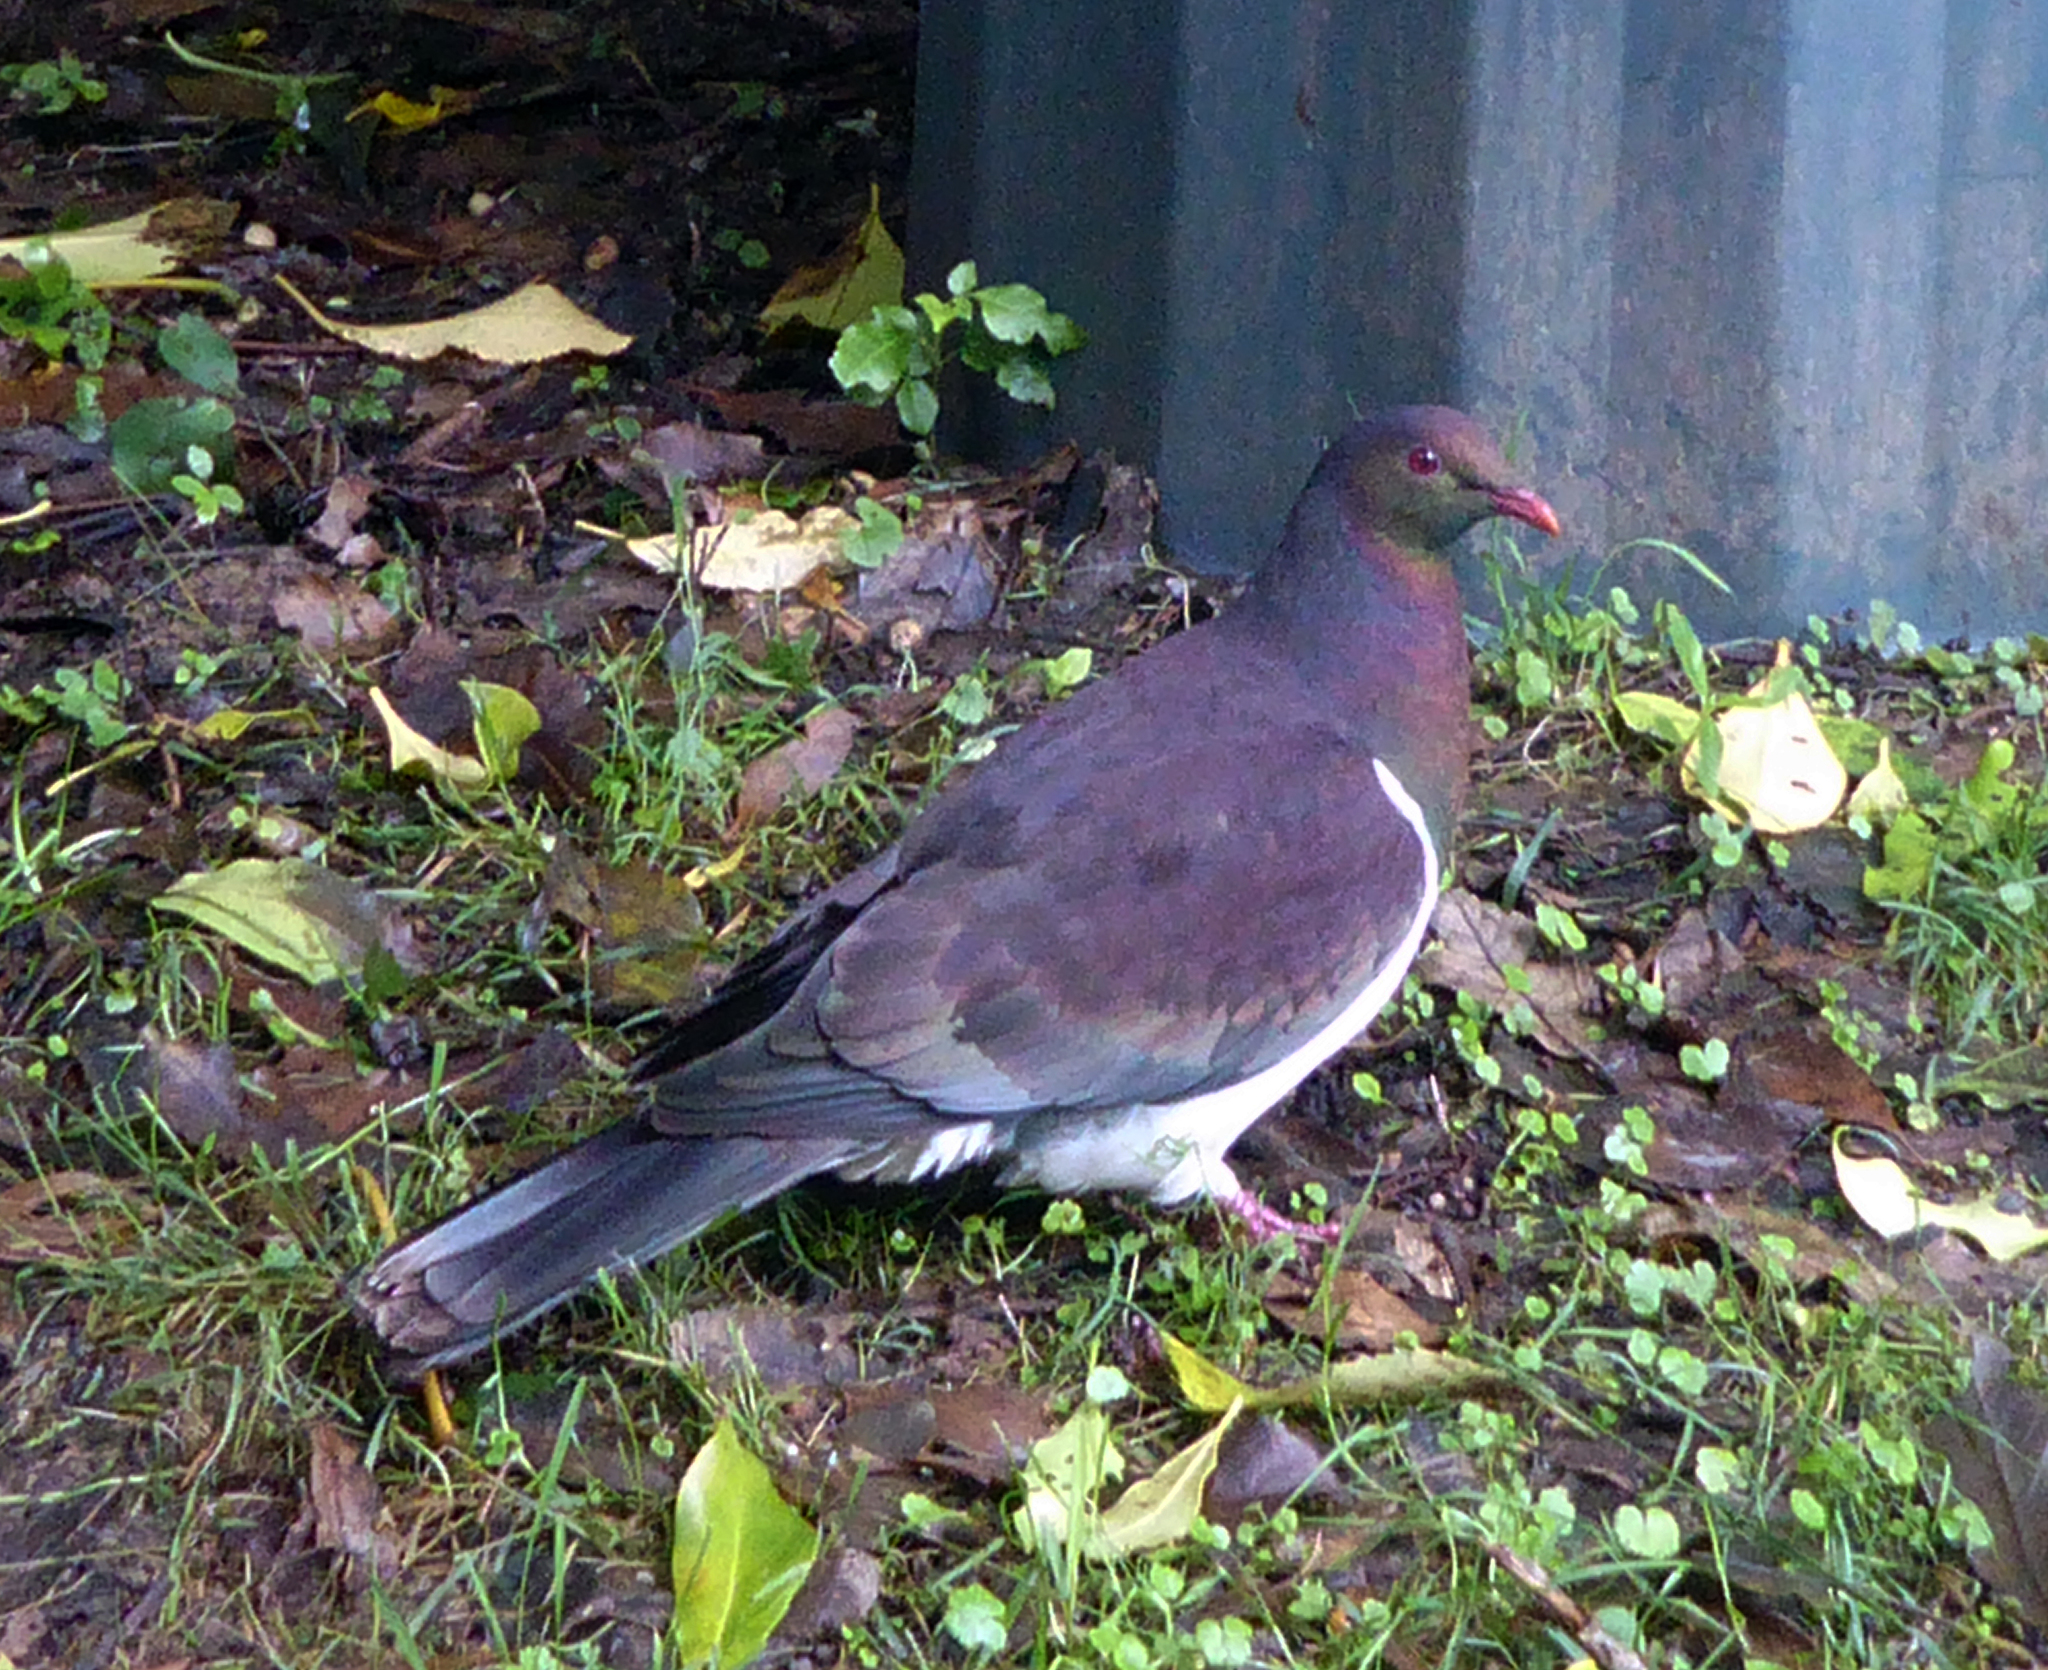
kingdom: Animalia
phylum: Chordata
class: Aves
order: Columbiformes
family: Columbidae
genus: Hemiphaga
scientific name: Hemiphaga novaeseelandiae
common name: New zealand pigeon
